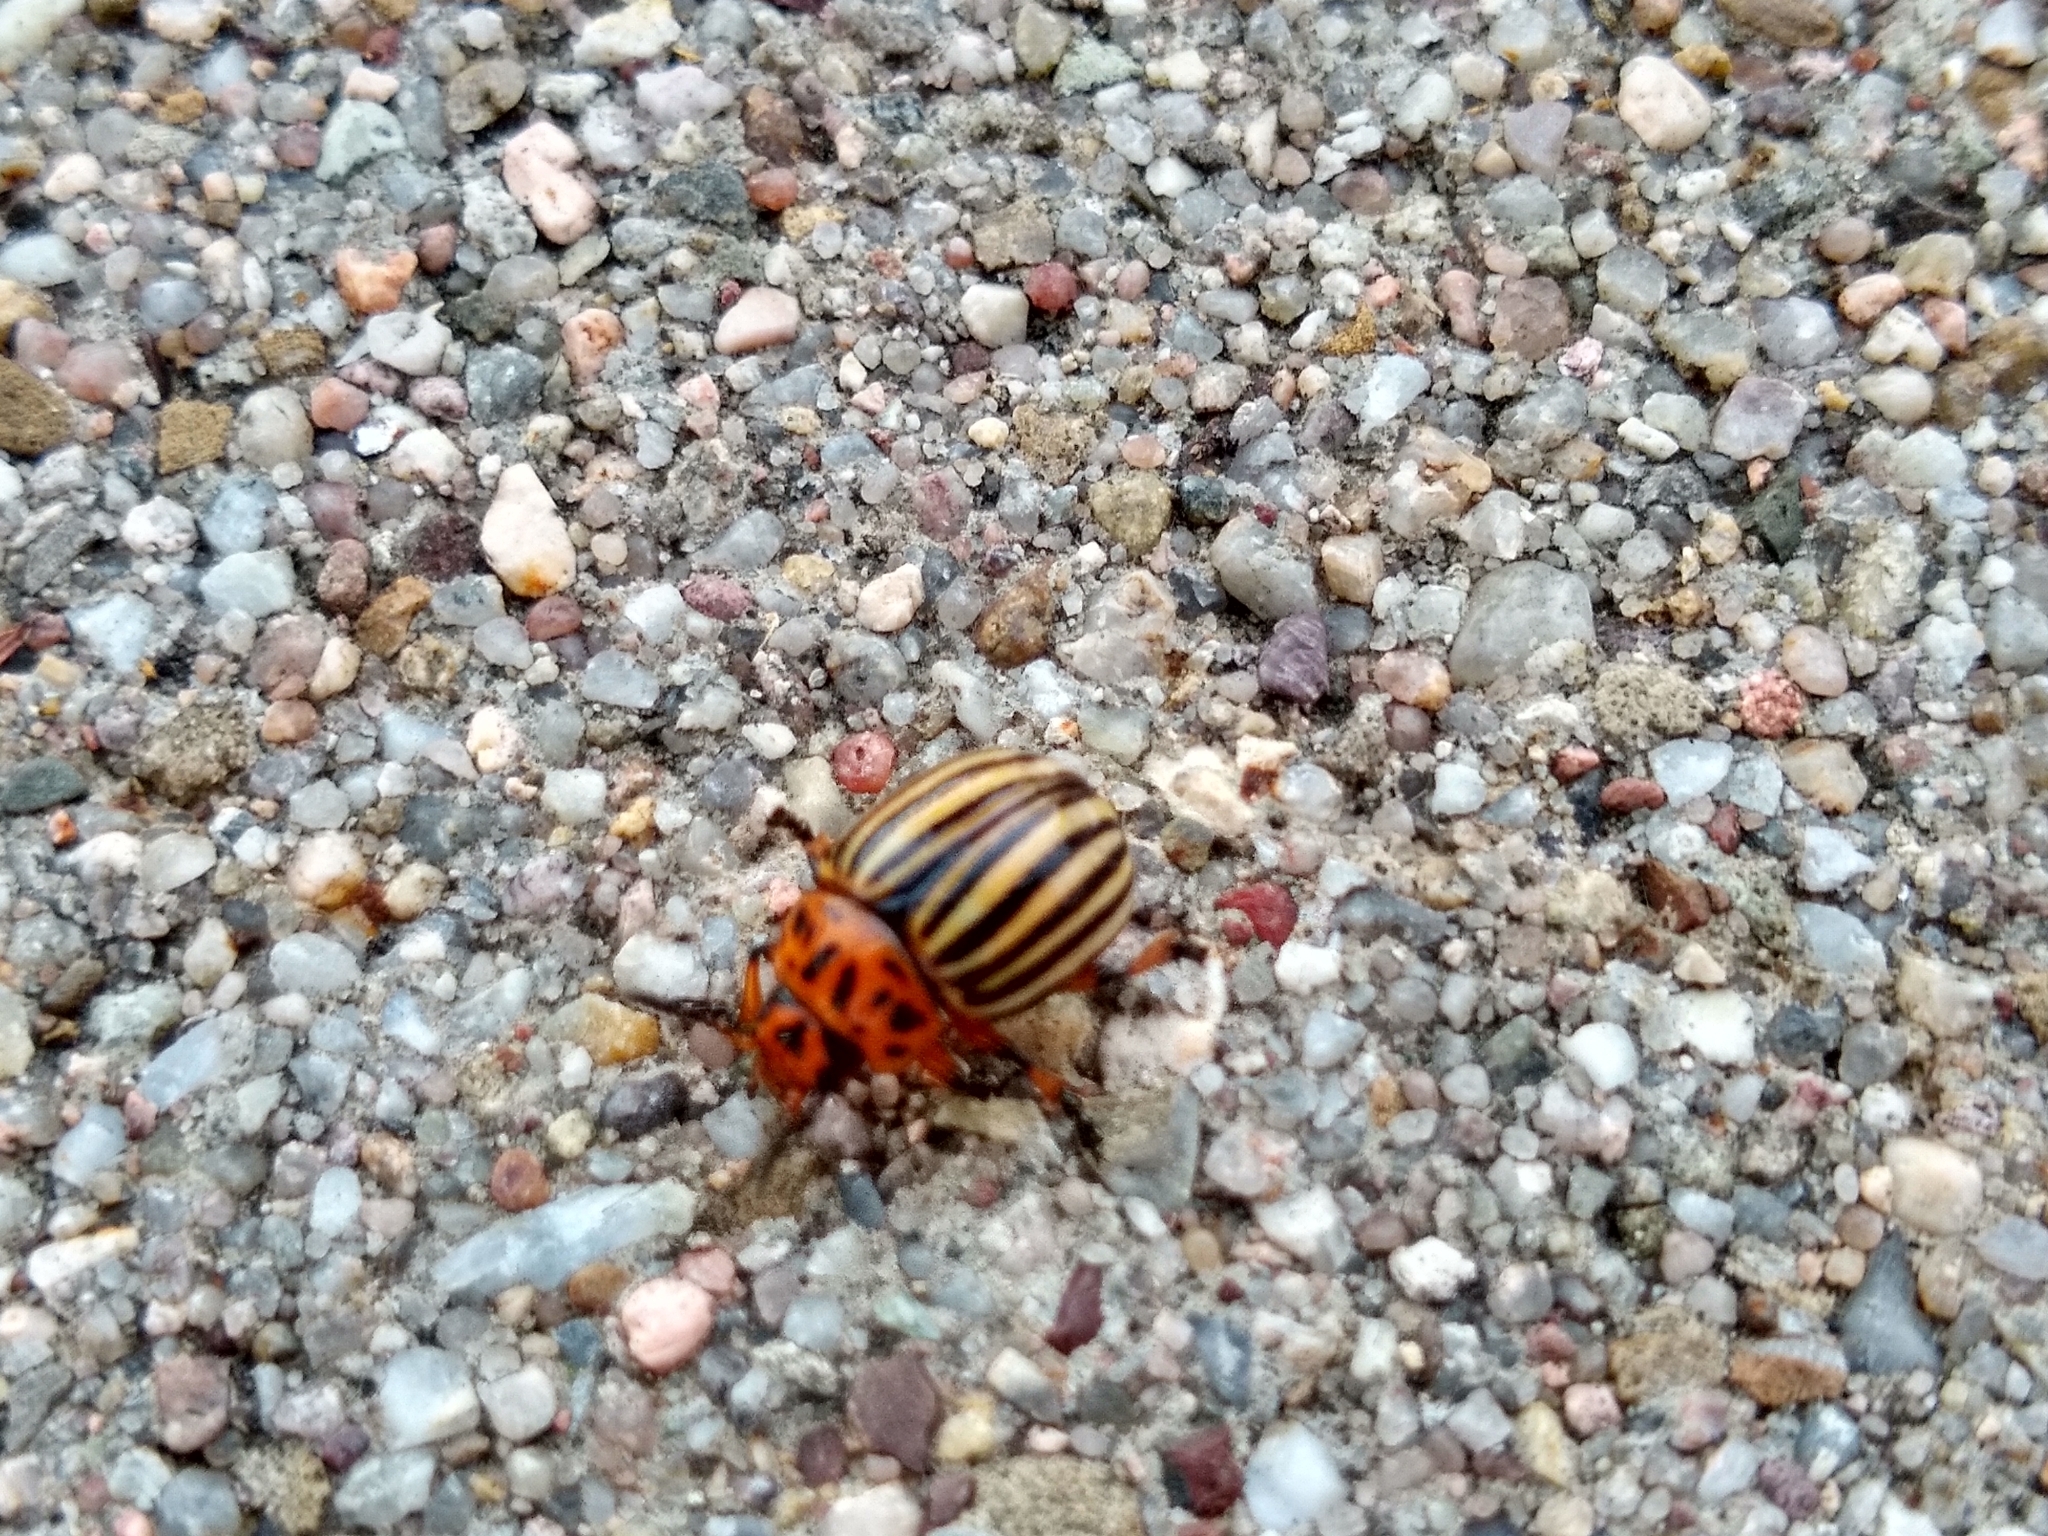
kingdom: Animalia
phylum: Arthropoda
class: Insecta
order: Coleoptera
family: Chrysomelidae
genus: Leptinotarsa
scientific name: Leptinotarsa decemlineata
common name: Colorado potato beetle
